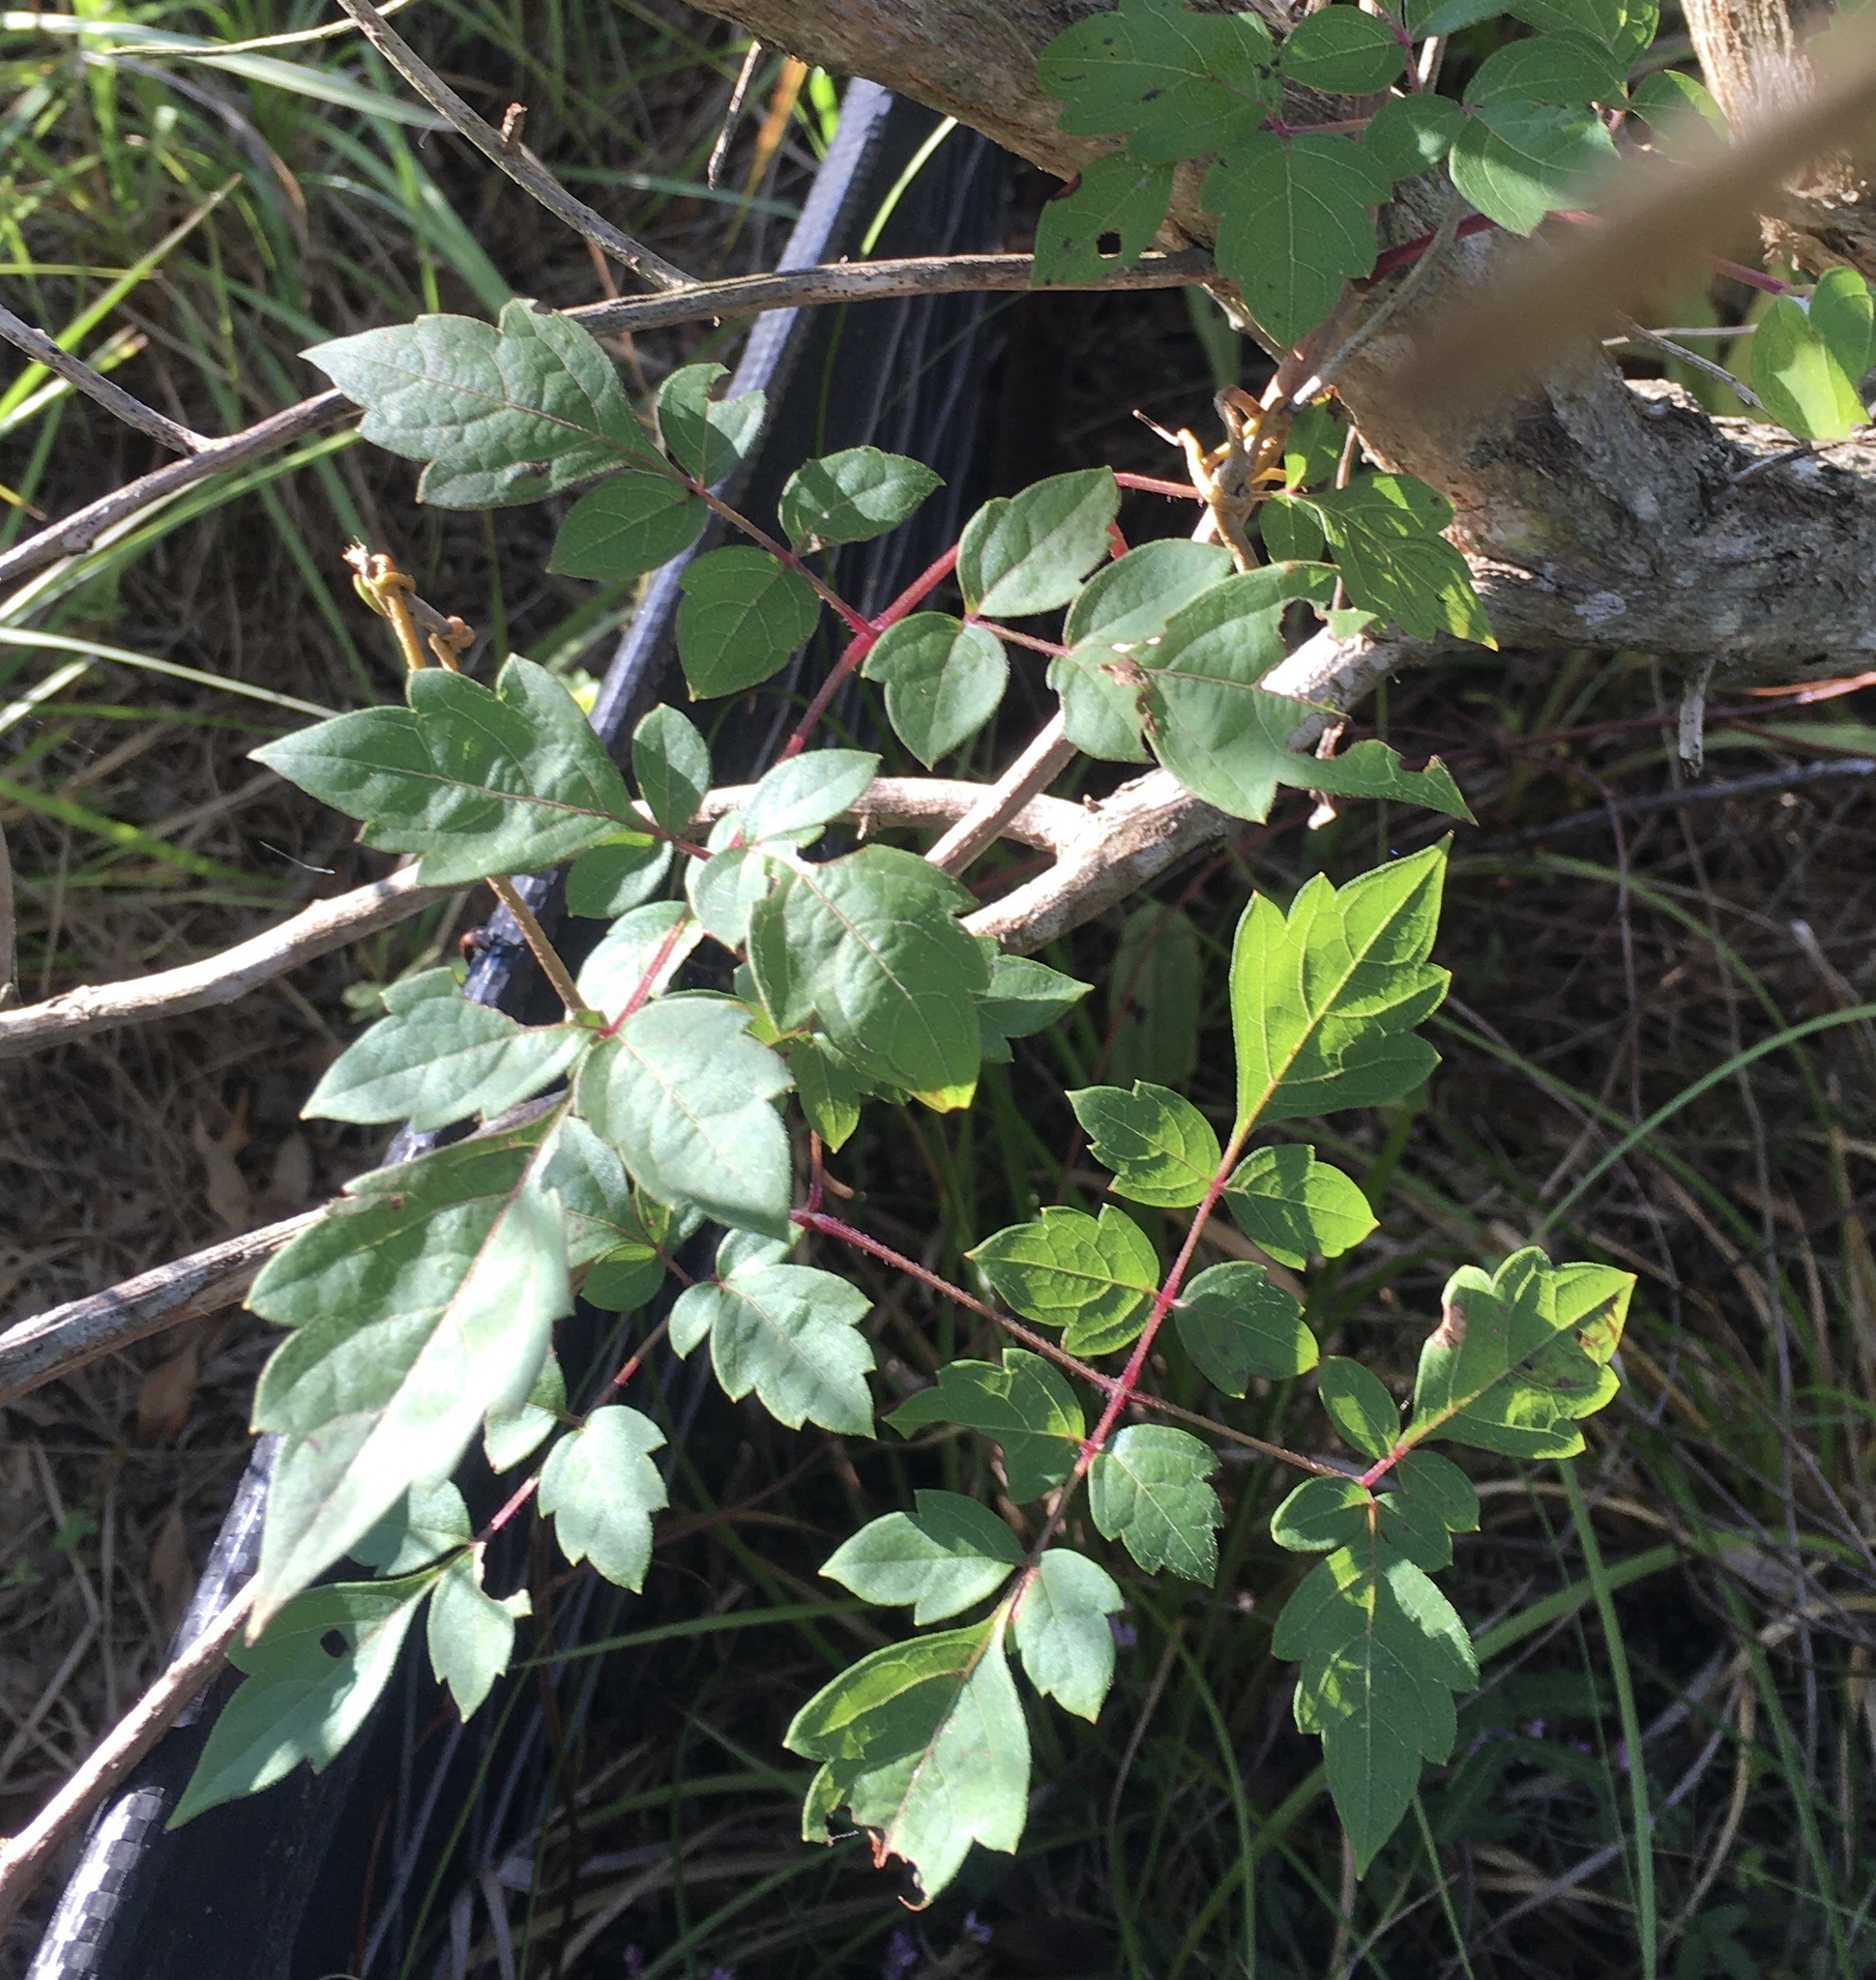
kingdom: Plantae
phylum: Tracheophyta
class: Magnoliopsida
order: Vitales
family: Vitaceae
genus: Nekemias
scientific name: Nekemias arborea
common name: Peppervine
